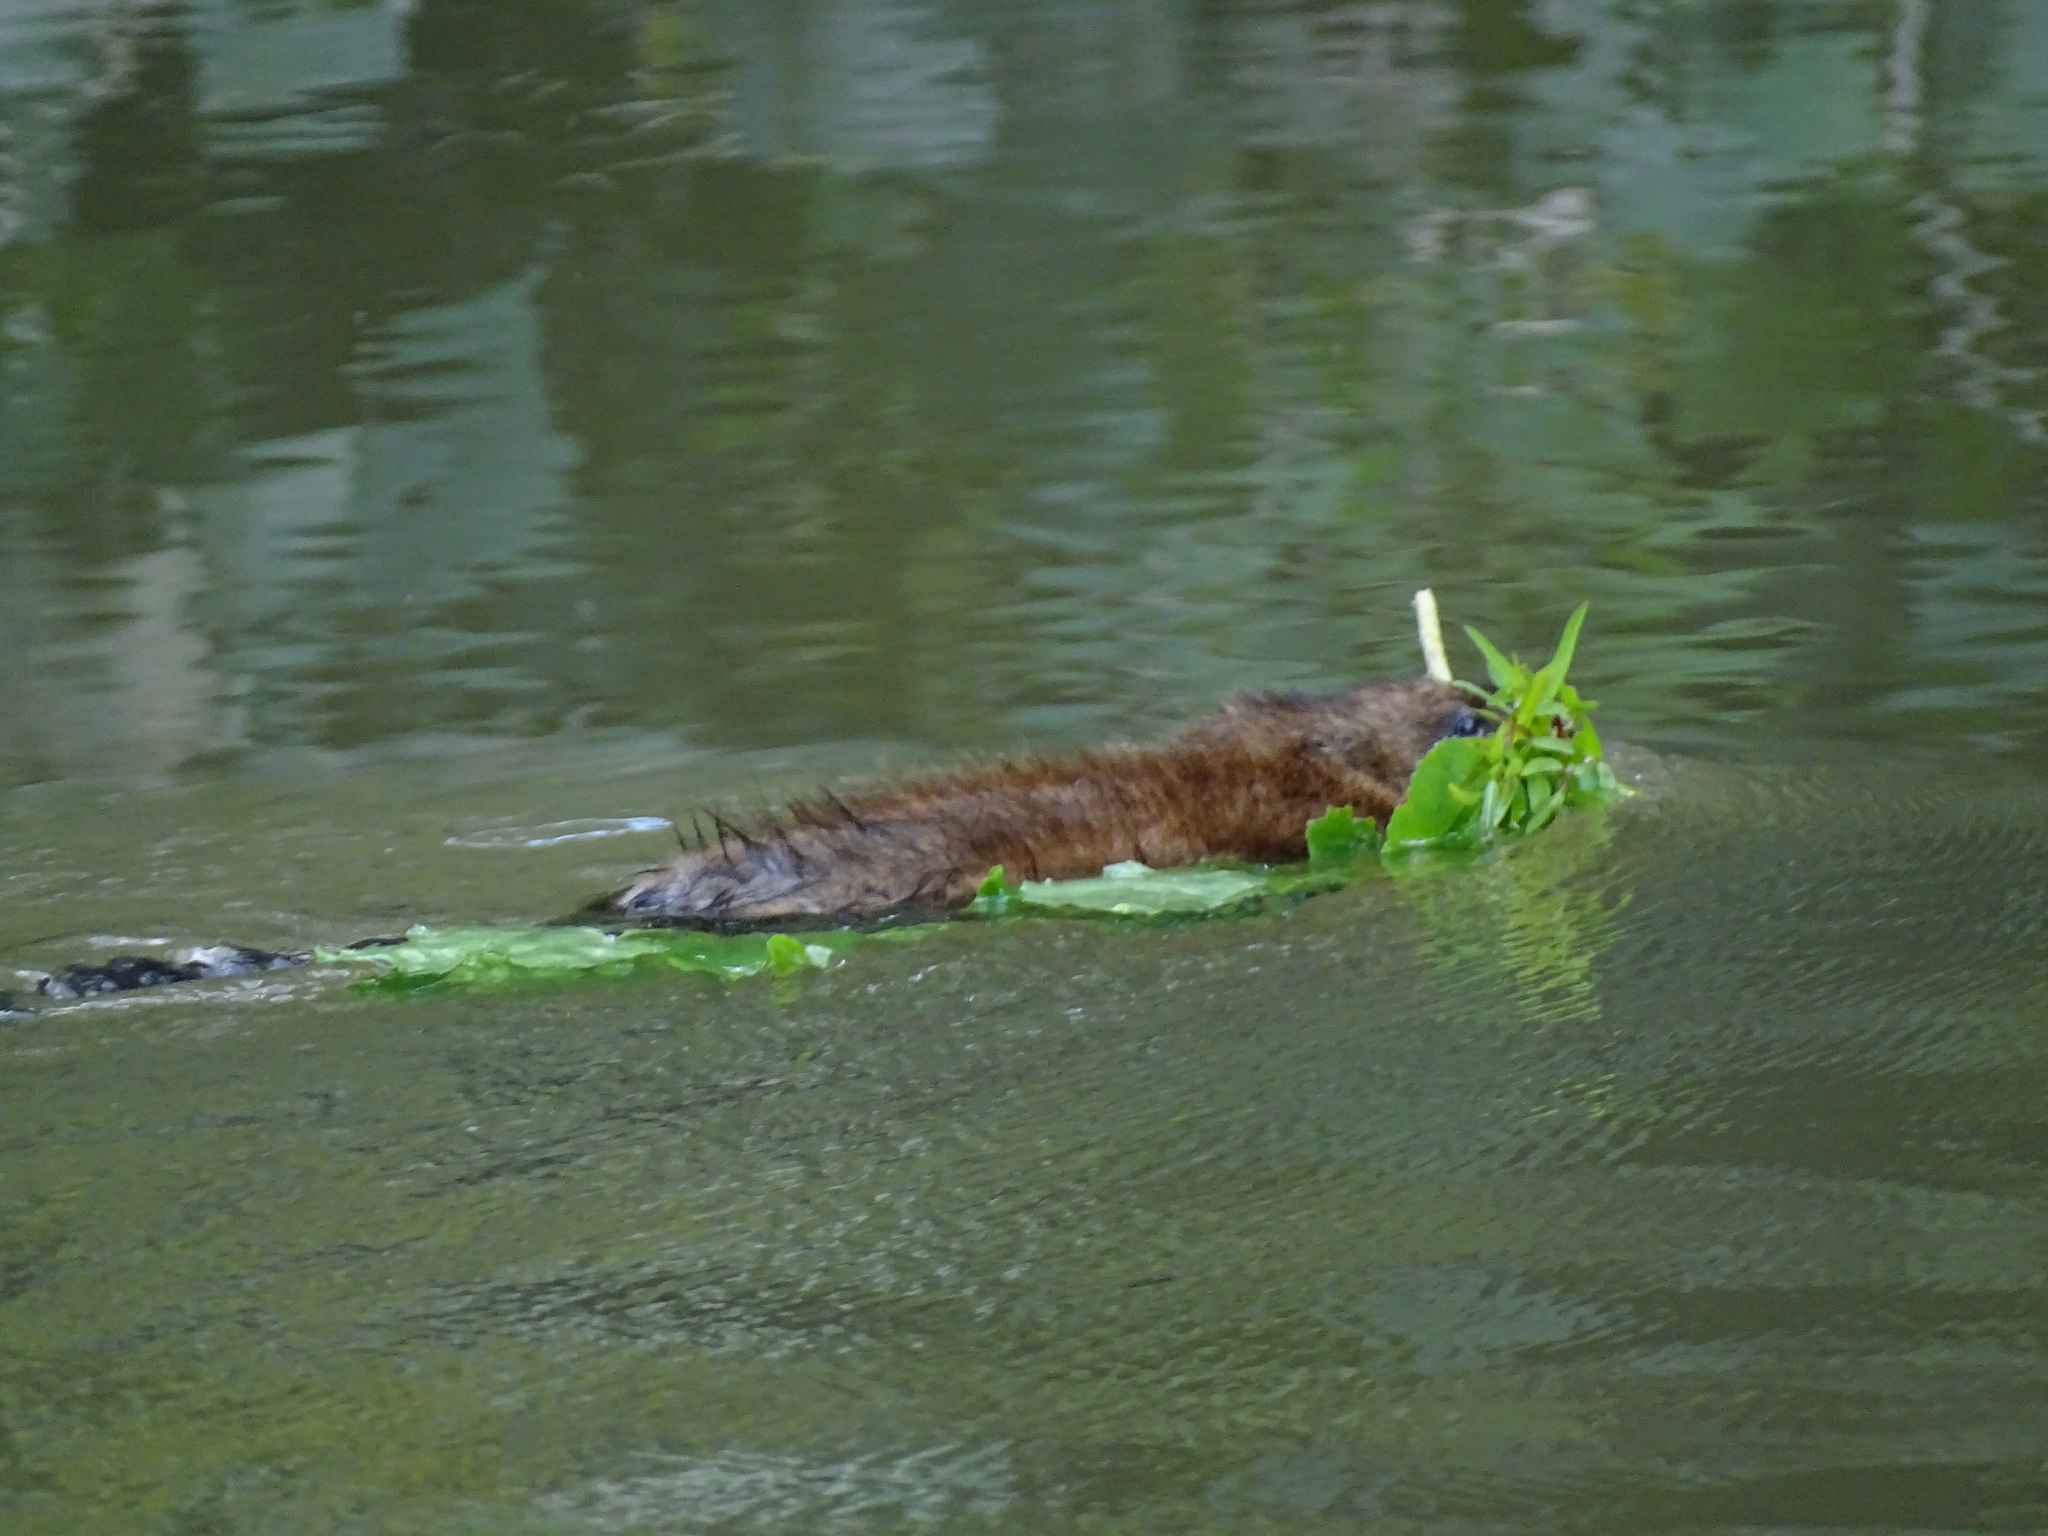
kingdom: Animalia
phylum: Chordata
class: Mammalia
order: Rodentia
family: Cricetidae
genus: Ondatra
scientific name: Ondatra zibethicus
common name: Muskrat
